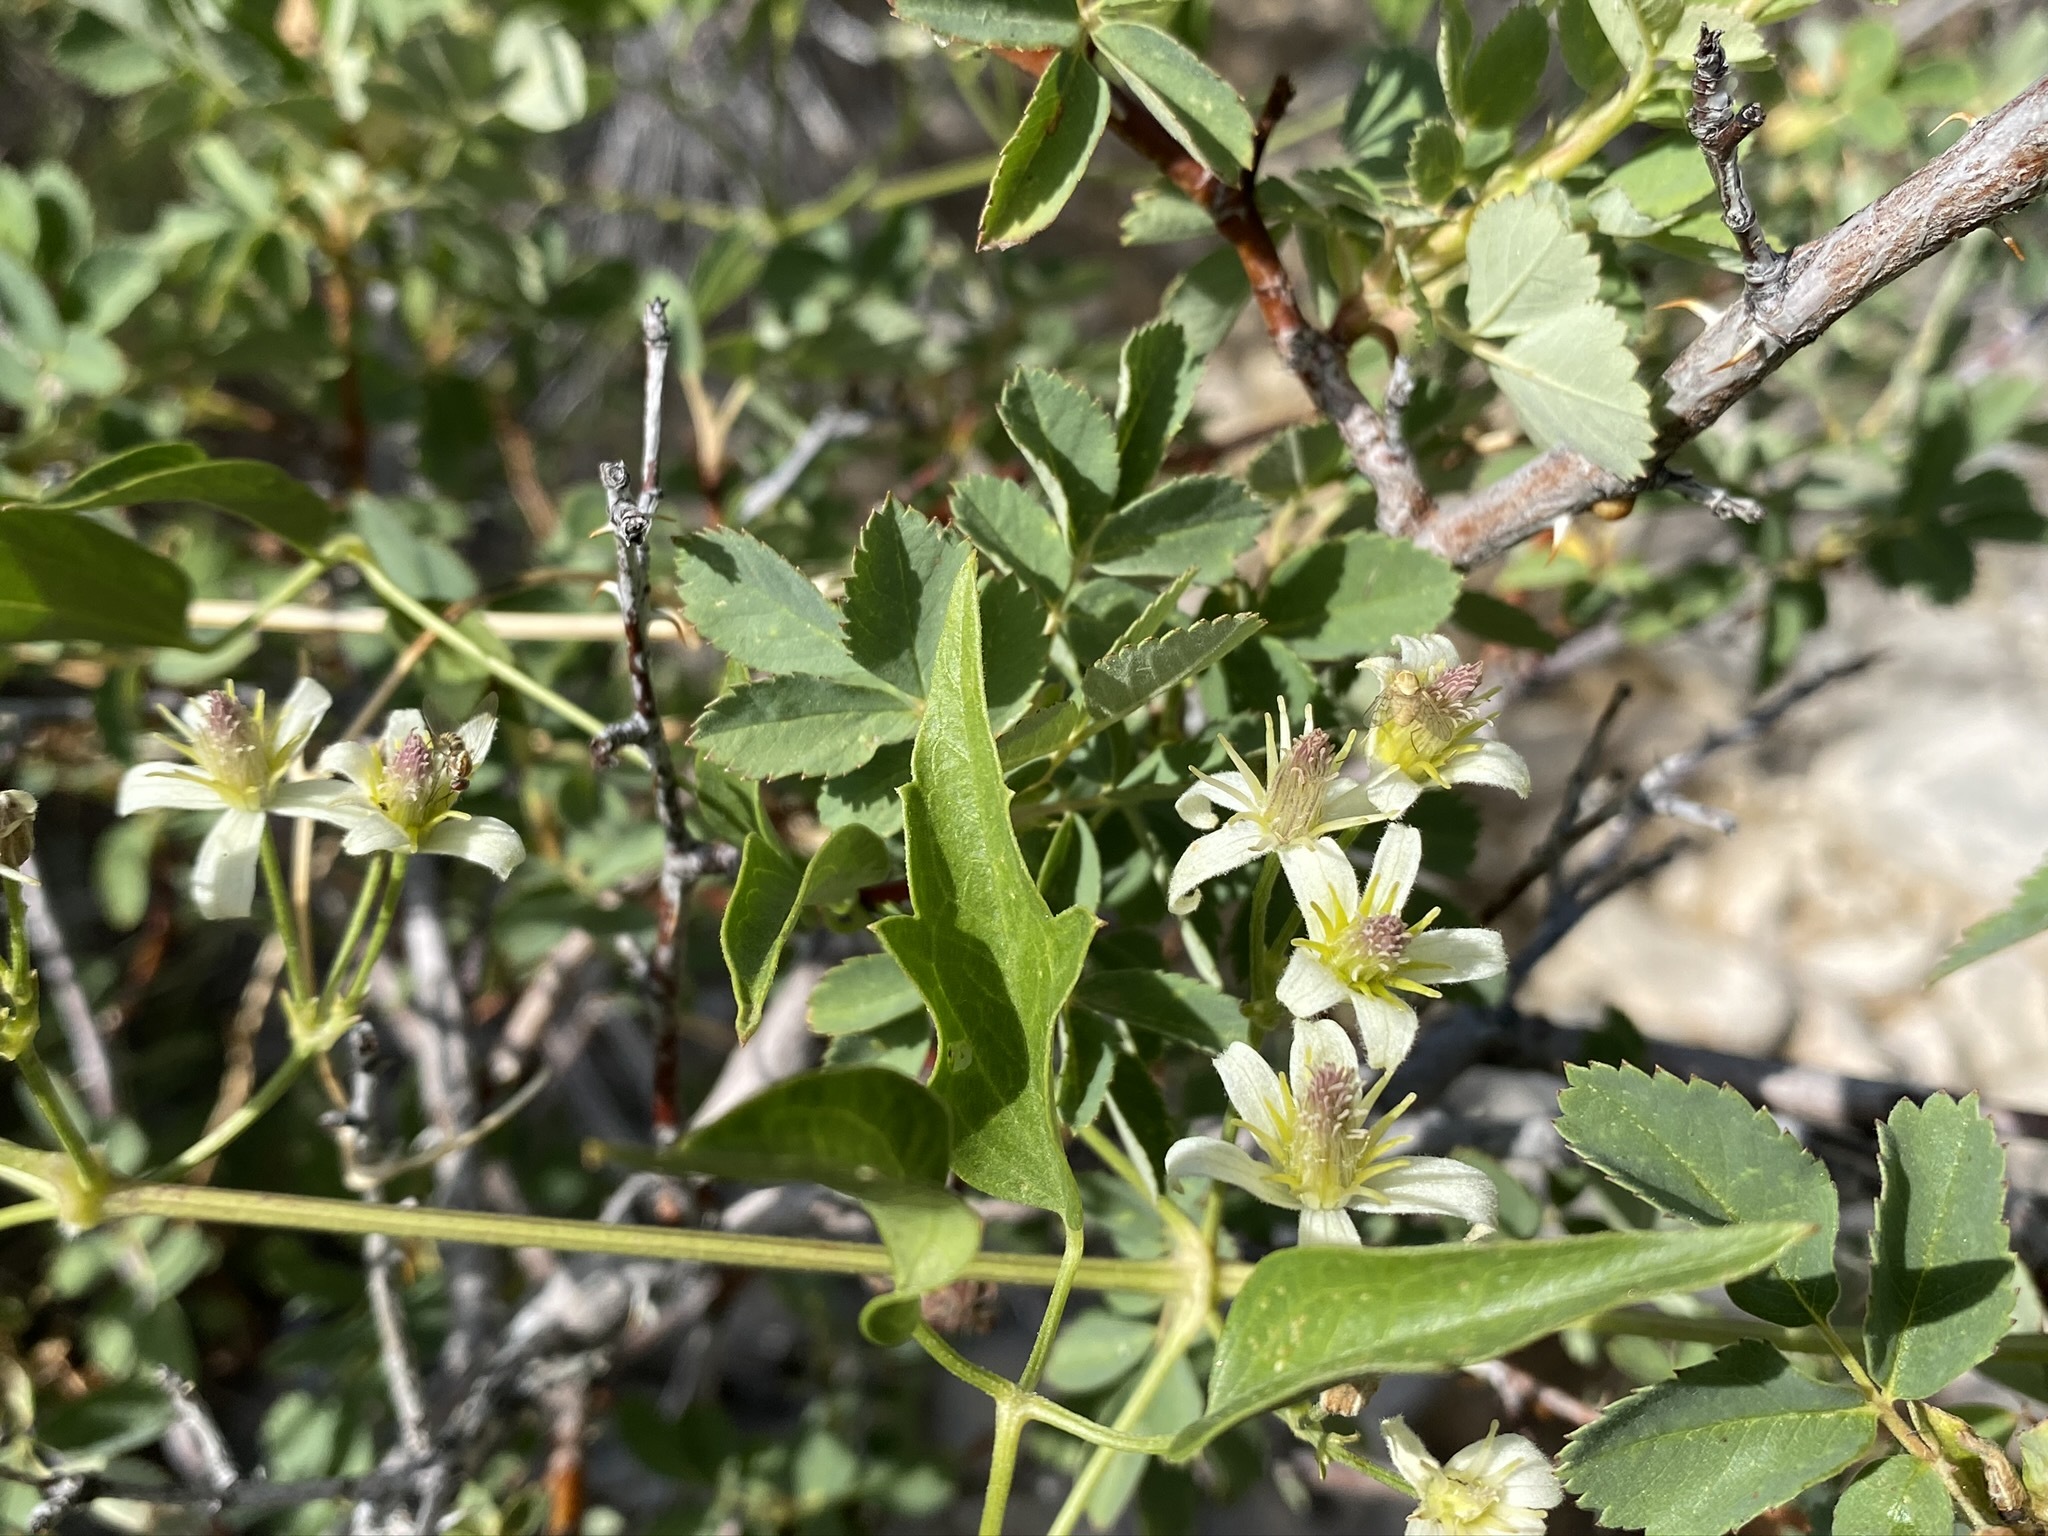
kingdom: Plantae
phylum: Tracheophyta
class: Magnoliopsida
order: Ranunculales
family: Ranunculaceae
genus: Clematis
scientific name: Clematis ligusticifolia
